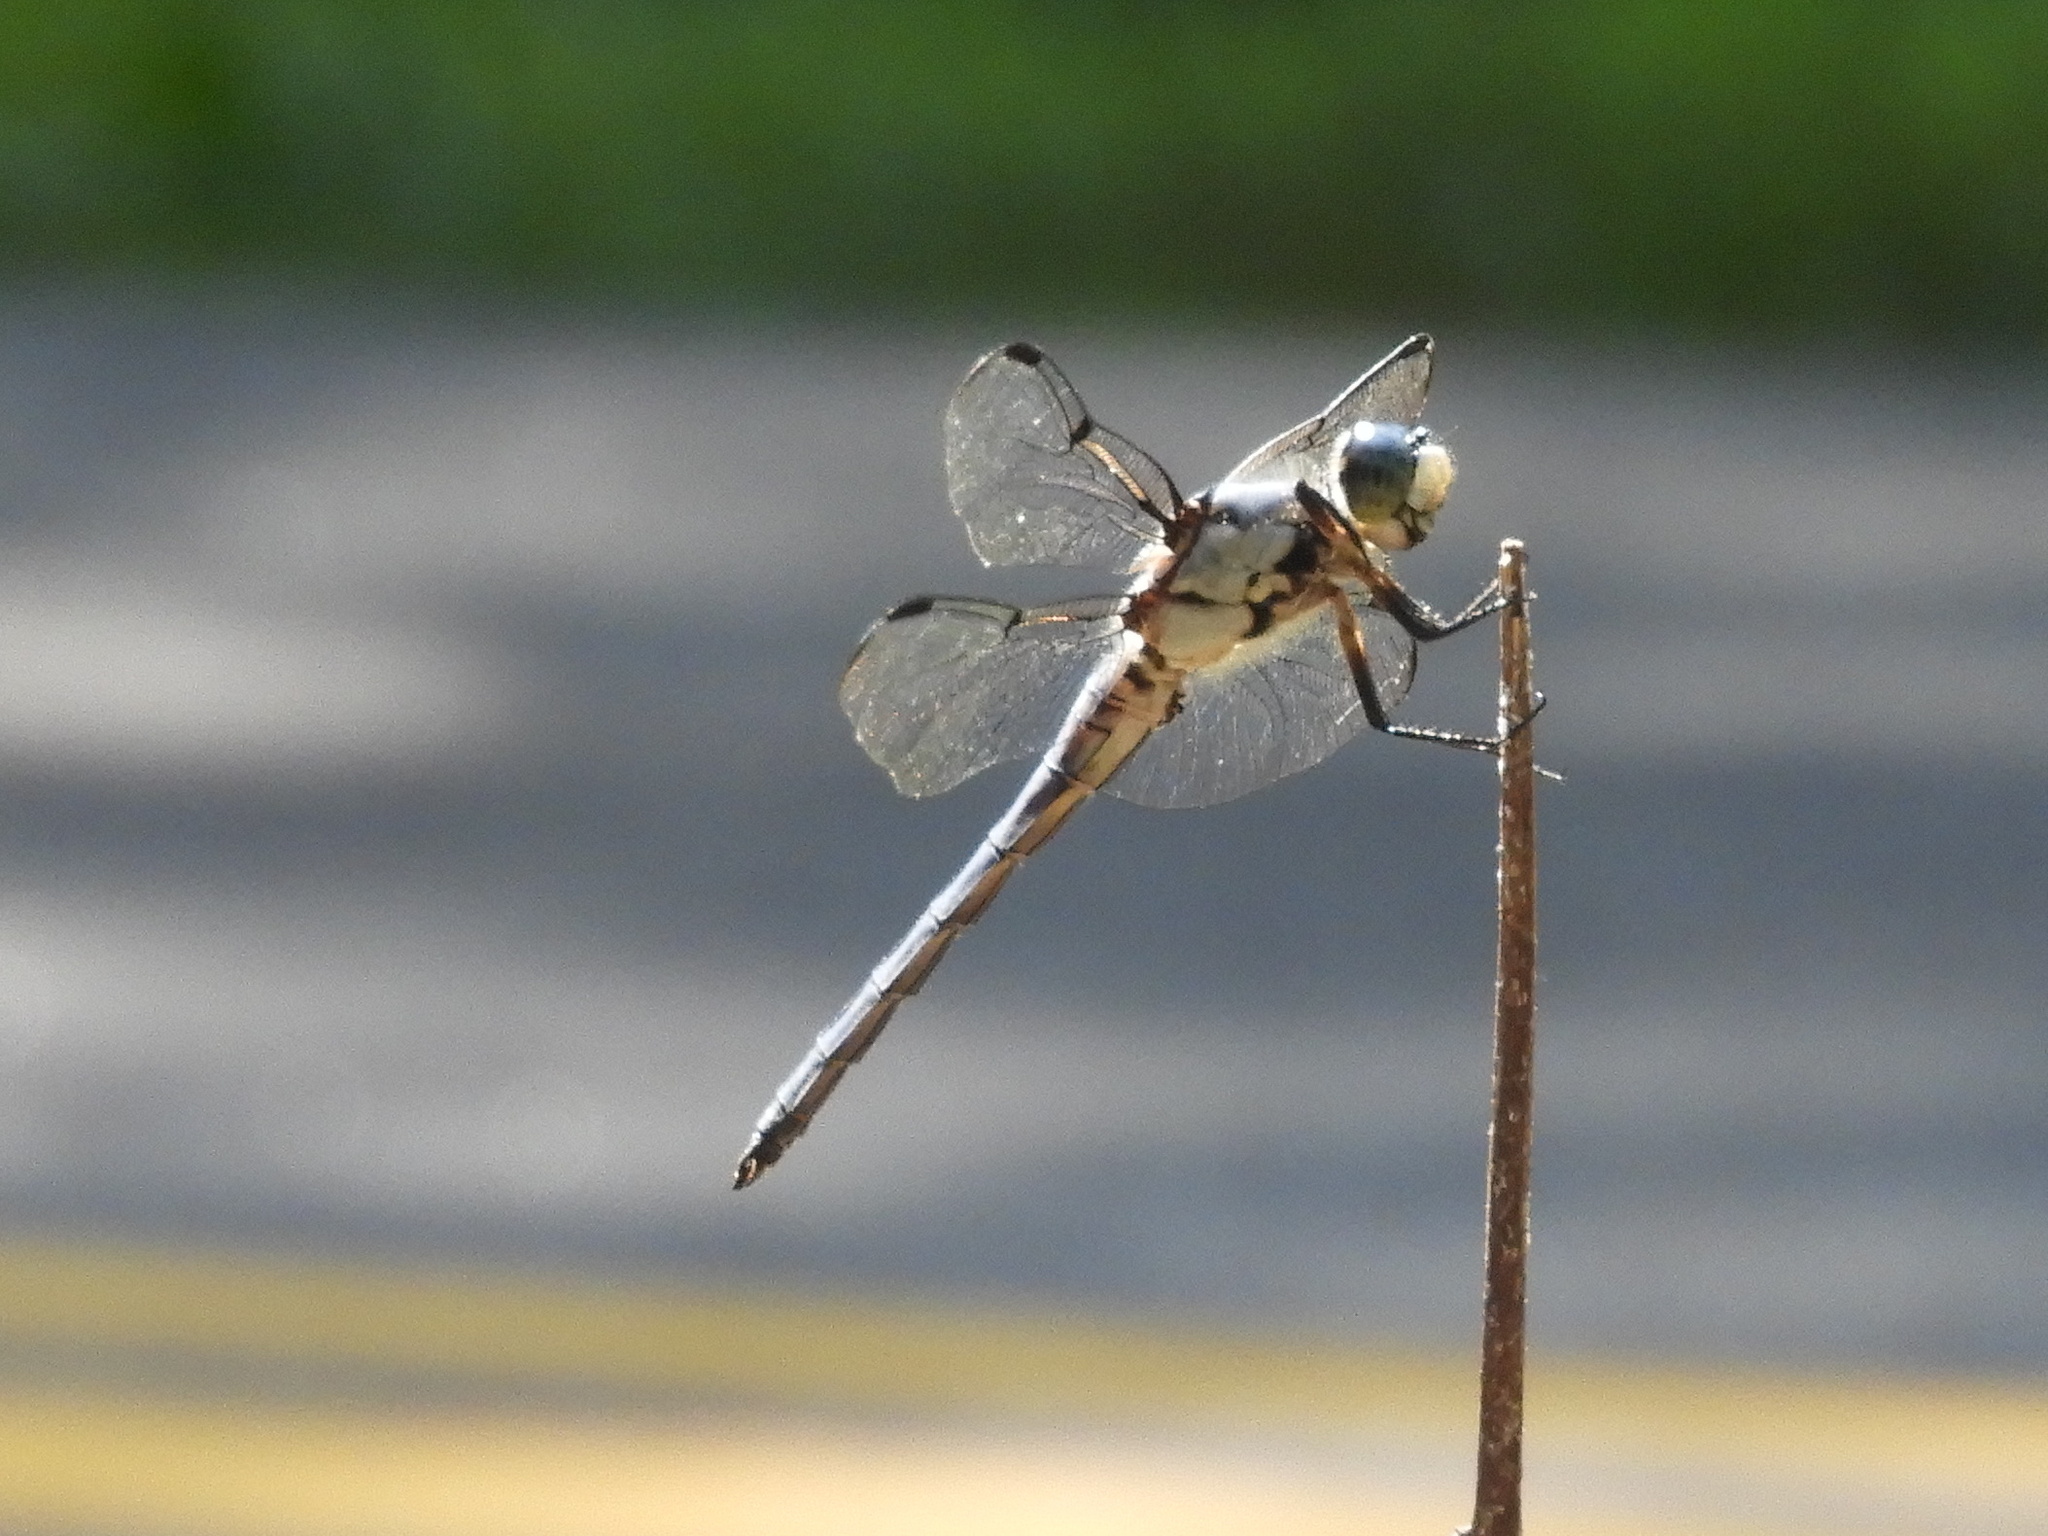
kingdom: Animalia
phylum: Arthropoda
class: Insecta
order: Odonata
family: Libellulidae
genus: Libellula
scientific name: Libellula vibrans
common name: Great blue skimmer
